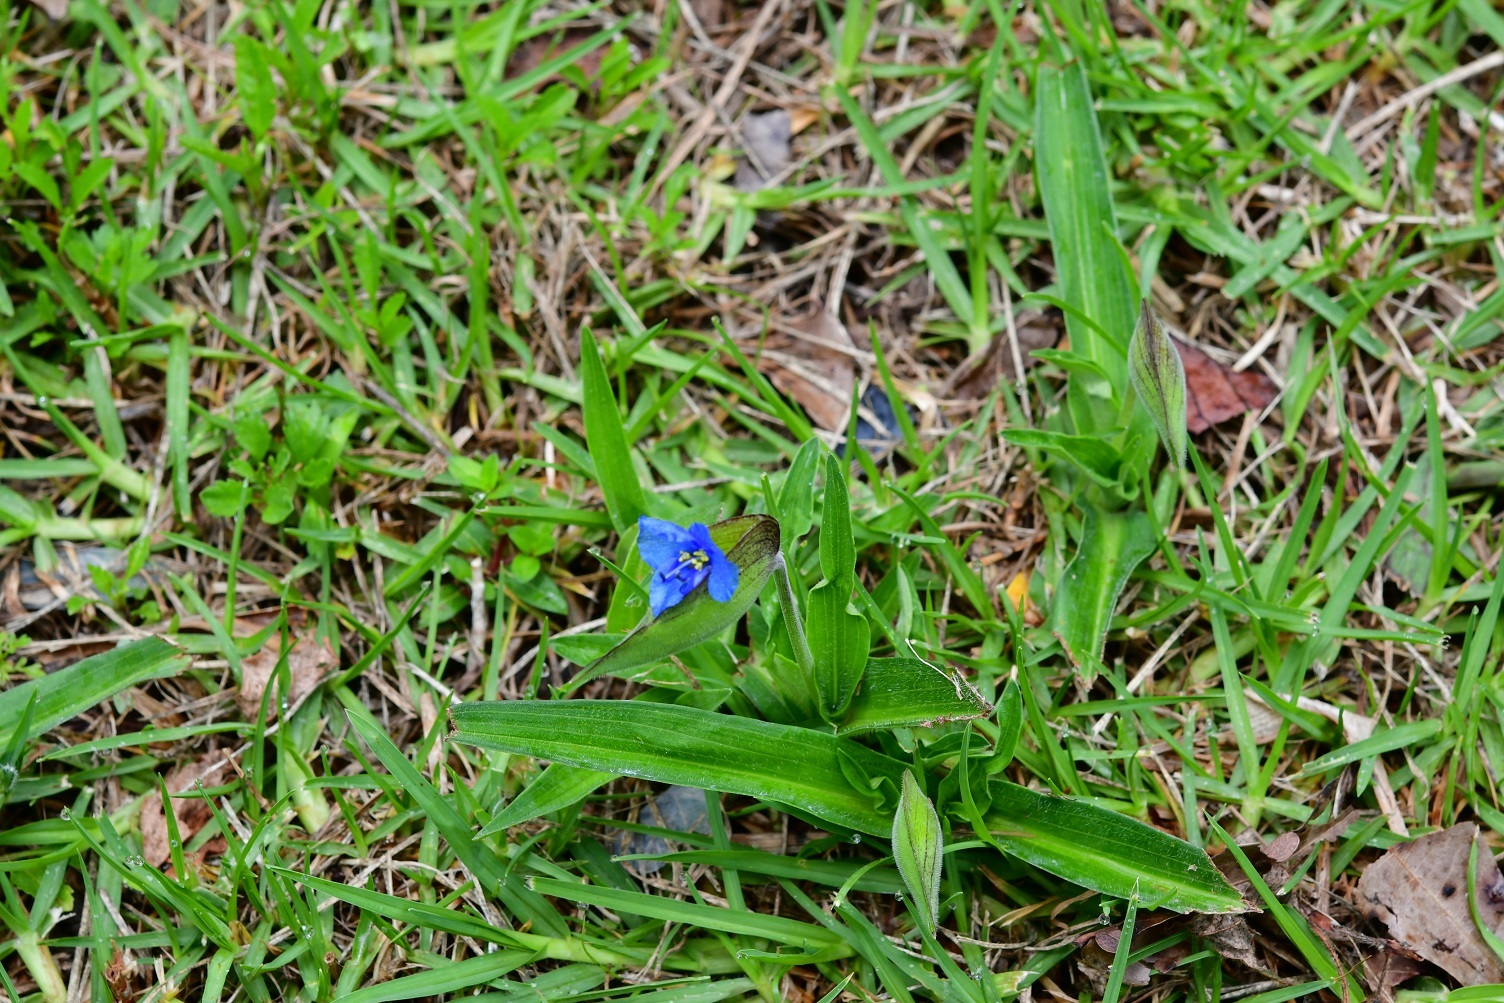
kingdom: Plantae
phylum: Tracheophyta
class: Liliopsida
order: Commelinales
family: Commelinaceae
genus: Commelina
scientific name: Commelina tuberosa
